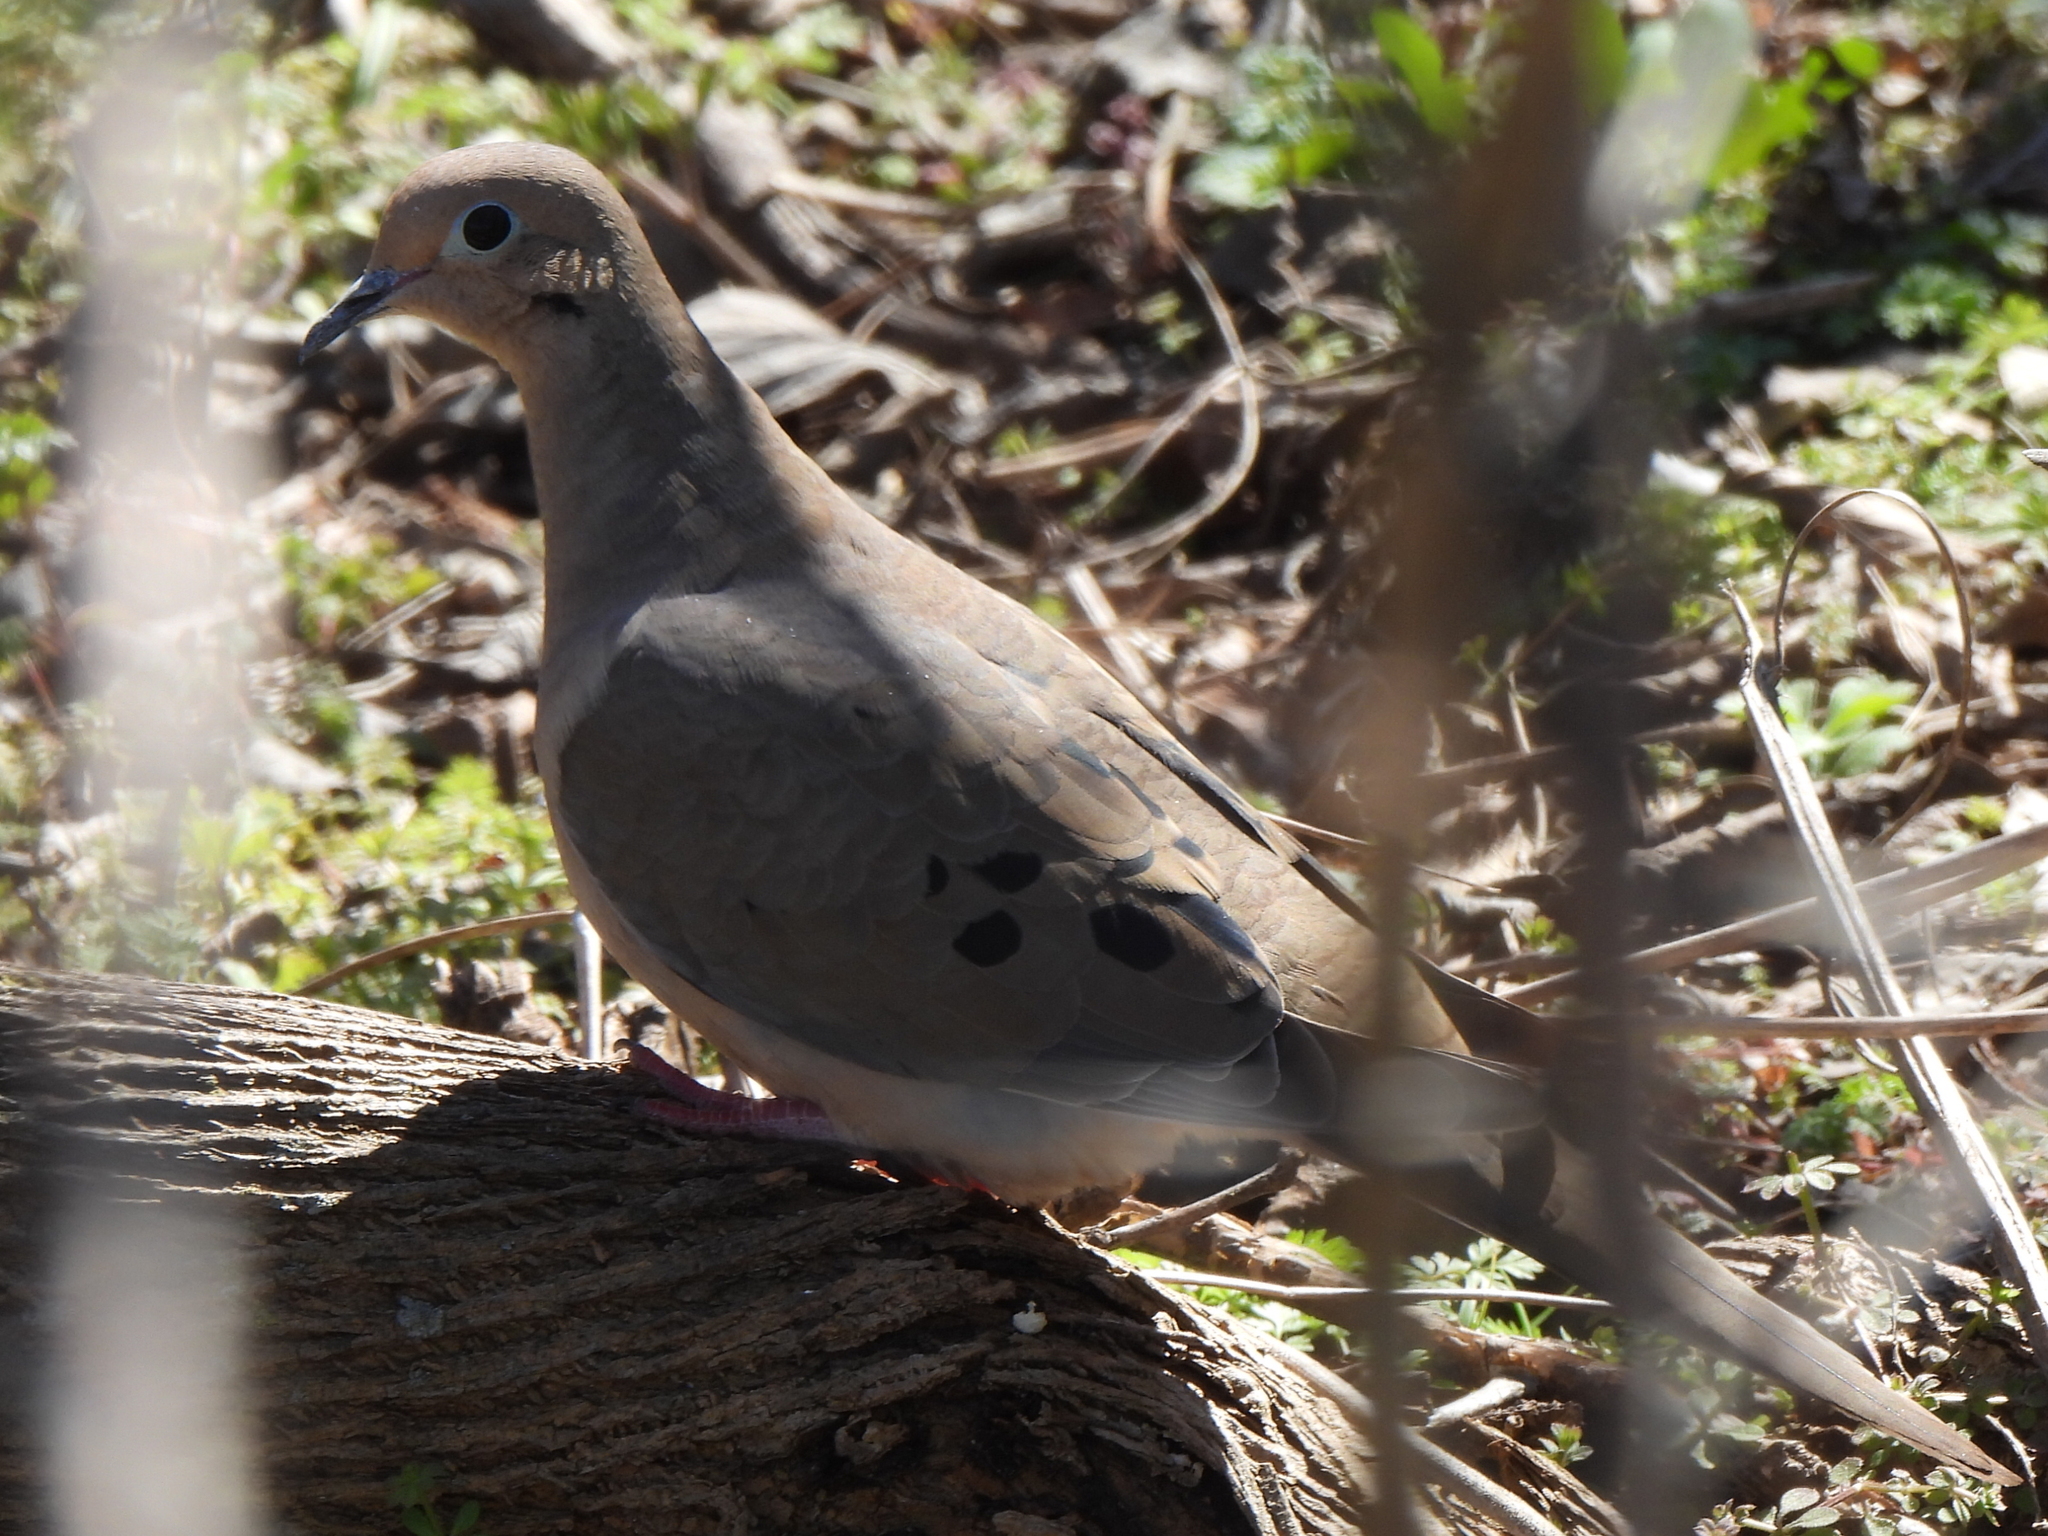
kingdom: Animalia
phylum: Chordata
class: Aves
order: Columbiformes
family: Columbidae
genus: Zenaida
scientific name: Zenaida macroura
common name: Mourning dove
